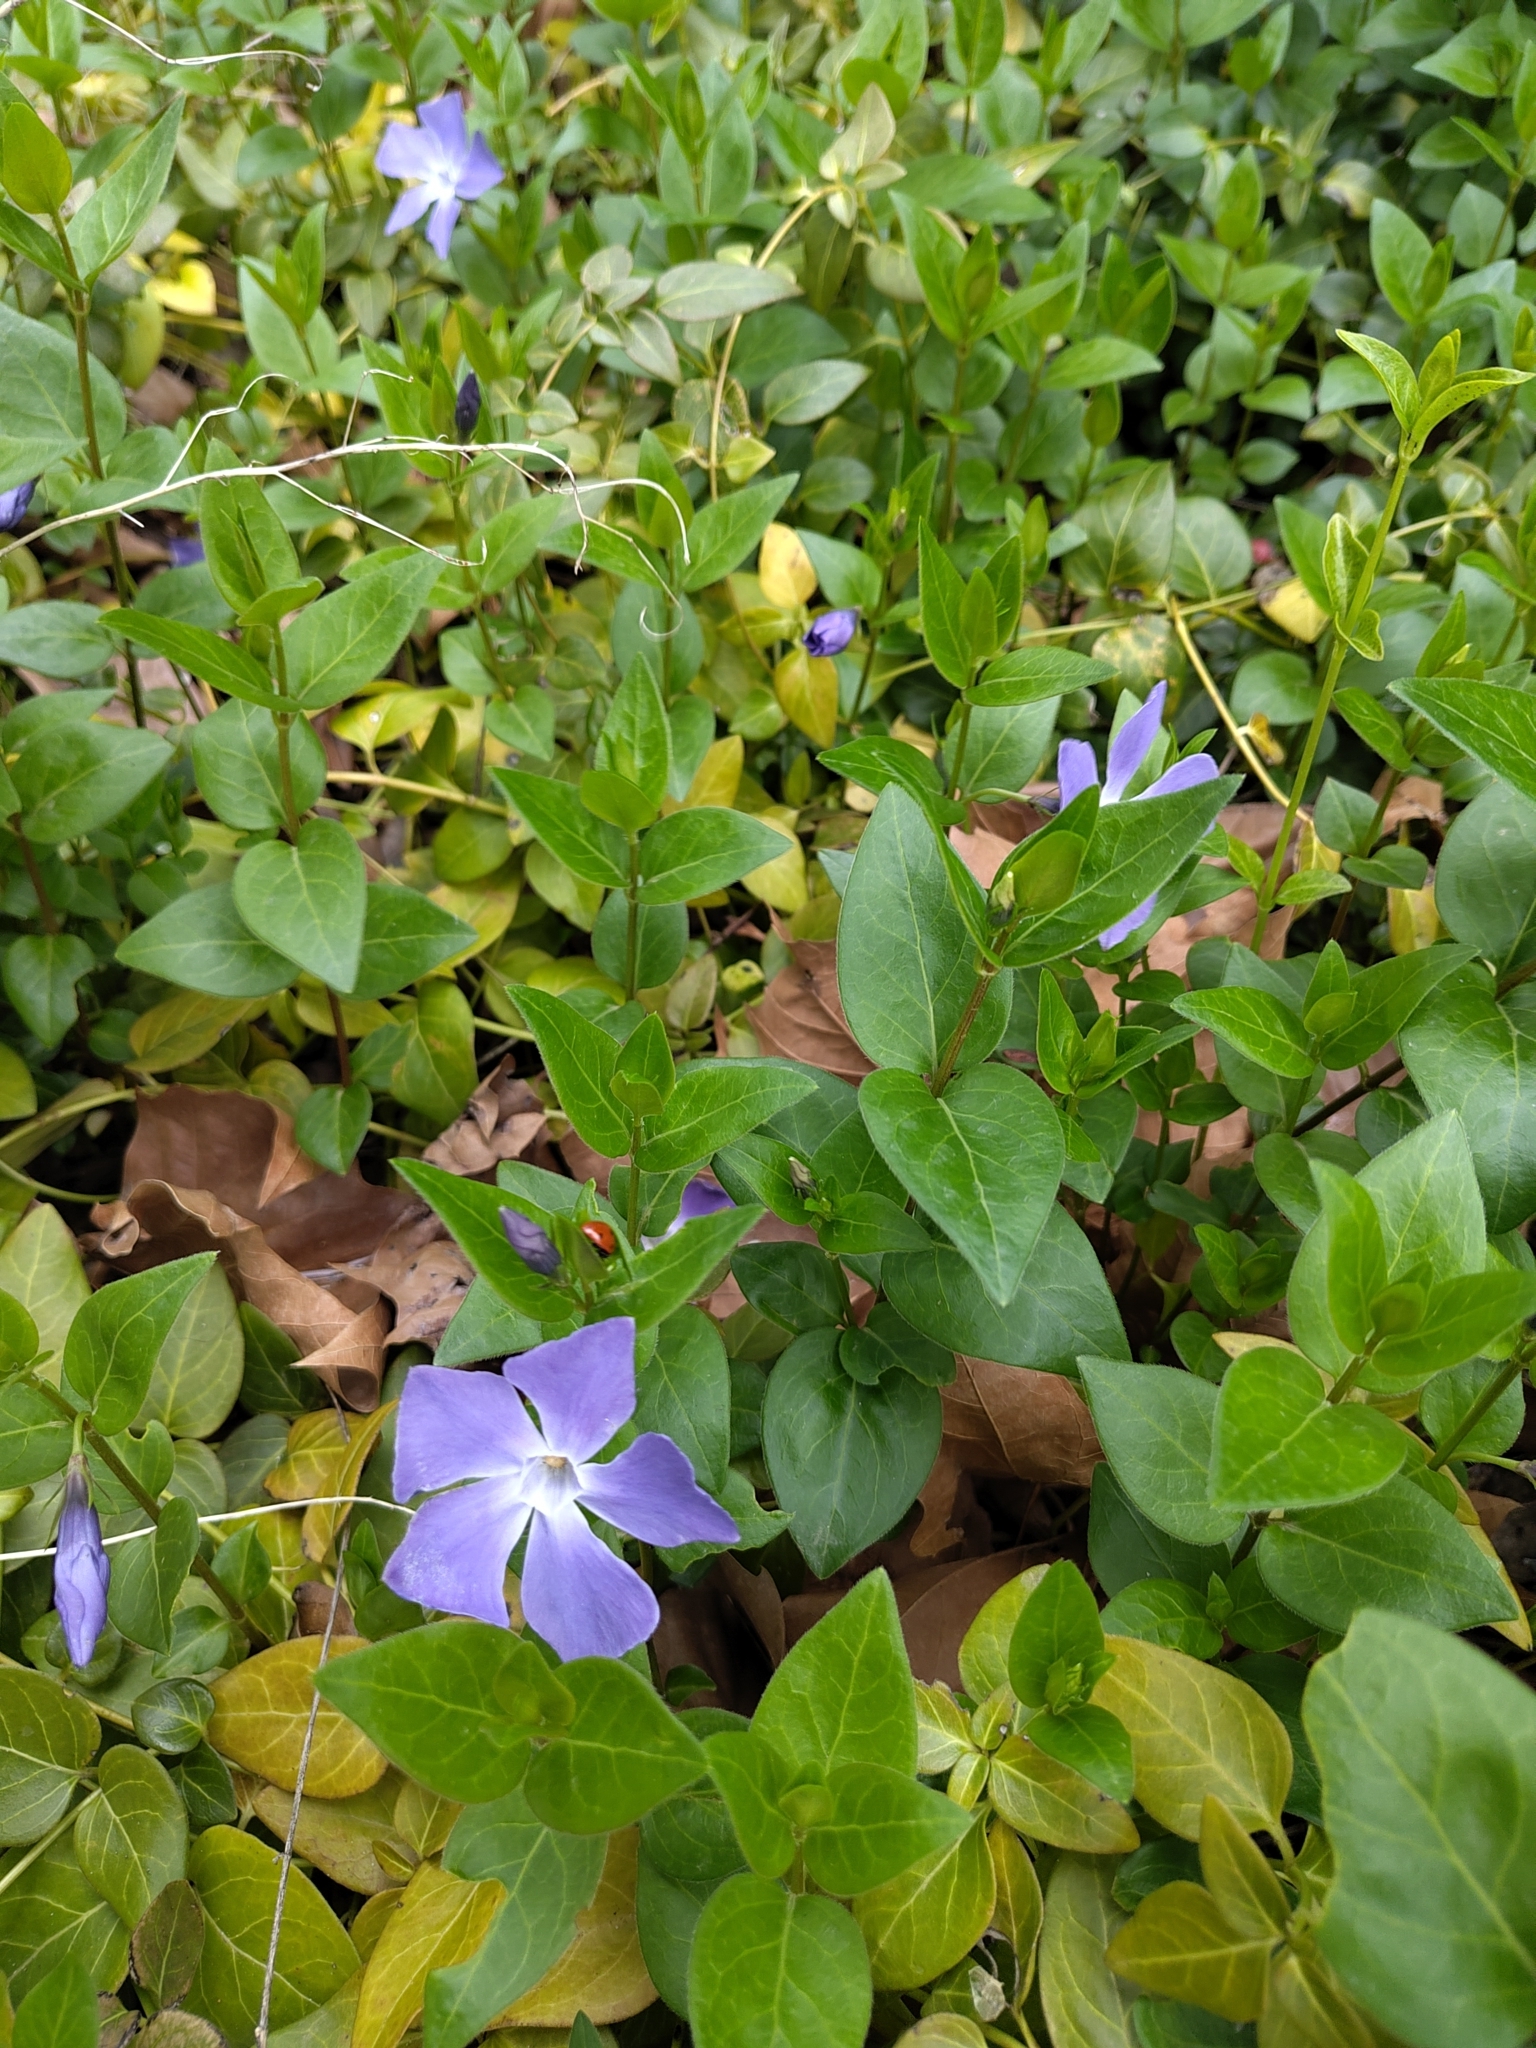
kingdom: Plantae
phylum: Tracheophyta
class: Magnoliopsida
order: Gentianales
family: Apocynaceae
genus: Vinca
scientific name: Vinca major
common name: Greater periwinkle
